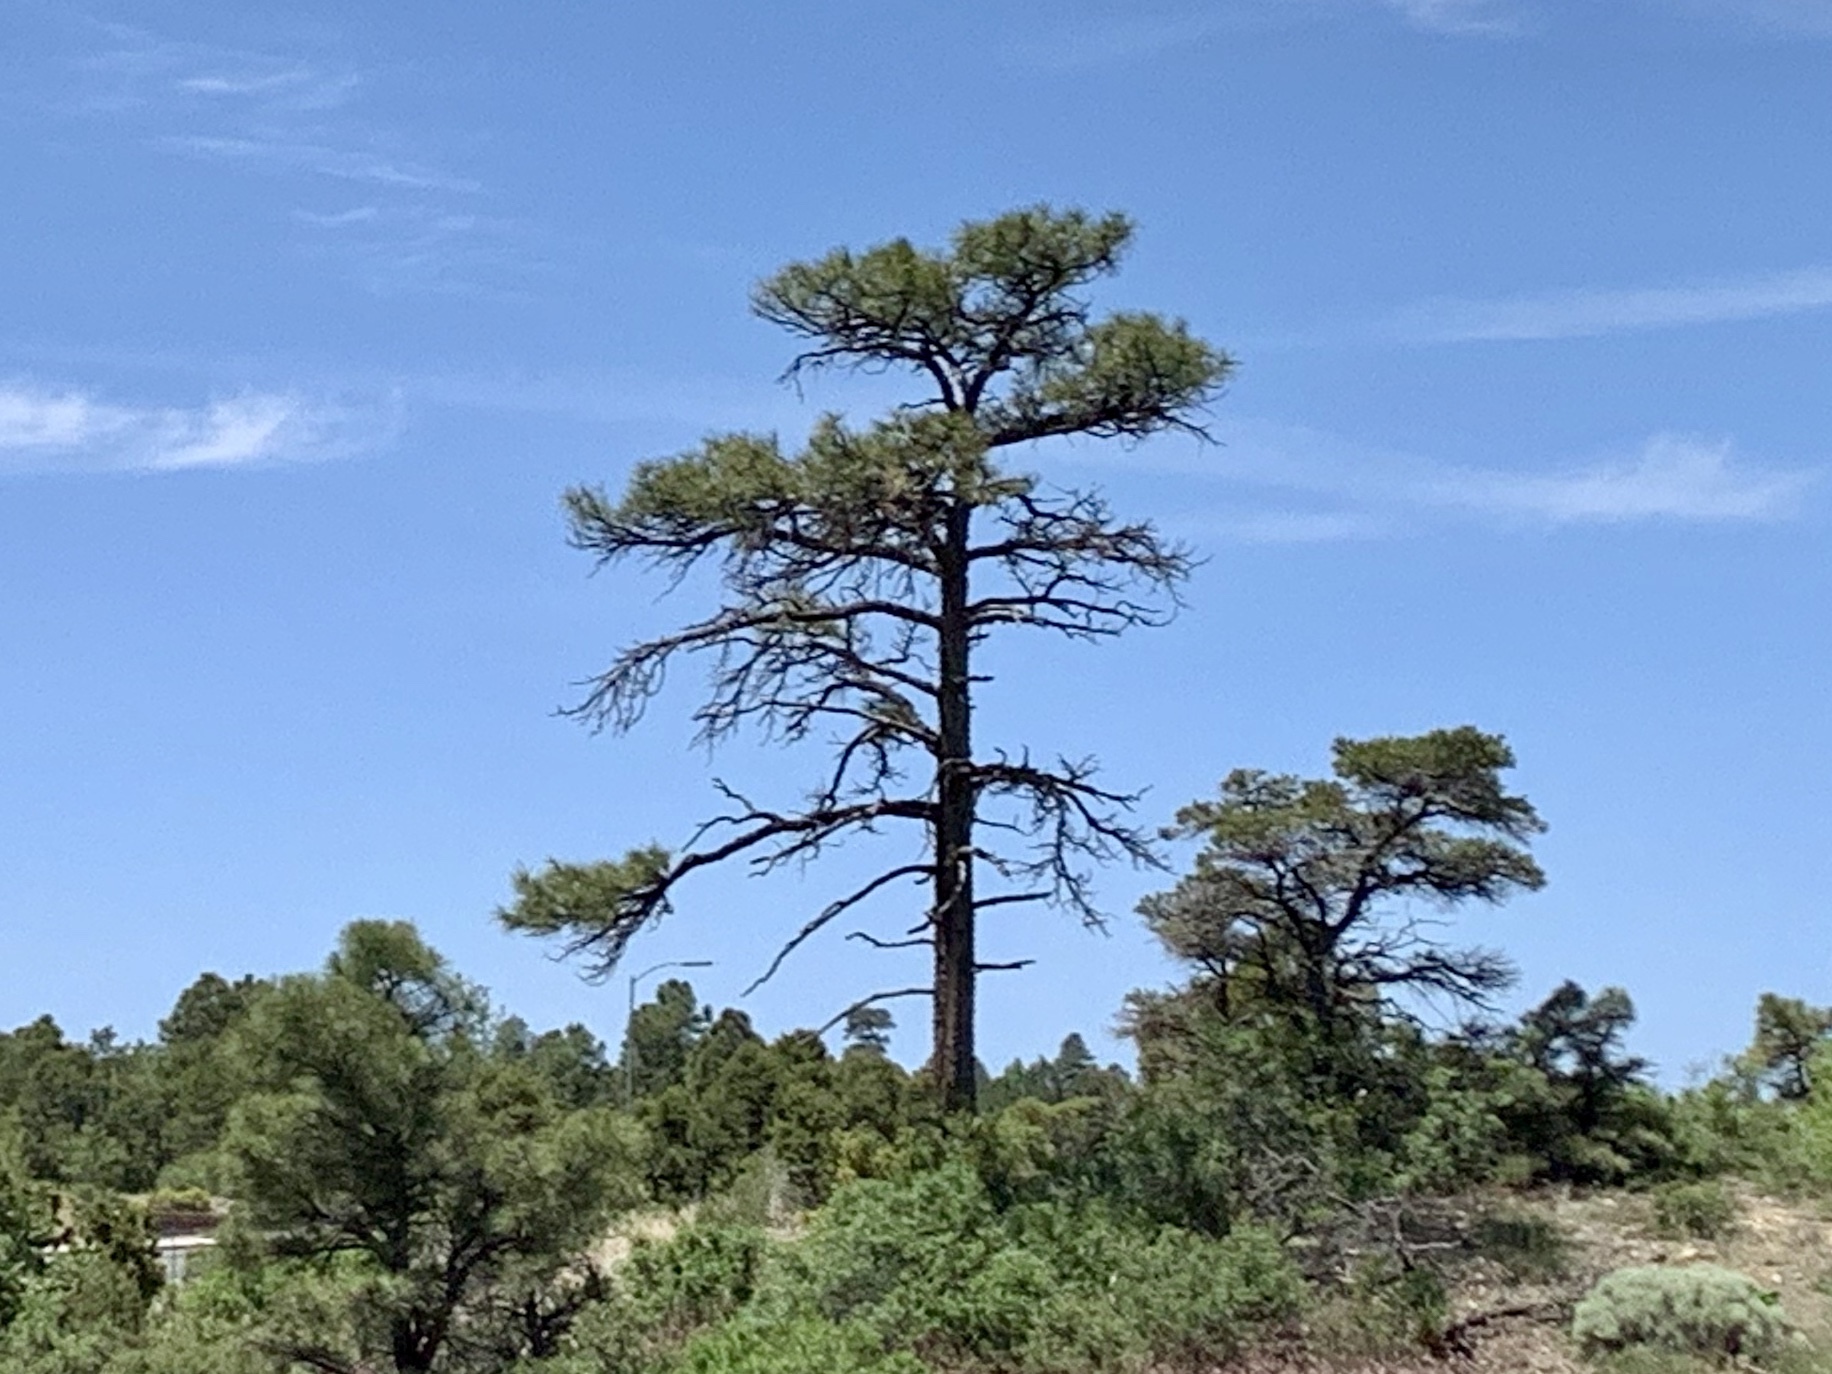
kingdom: Plantae
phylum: Tracheophyta
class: Pinopsida
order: Pinales
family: Pinaceae
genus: Pinus
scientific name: Pinus ponderosa
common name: Western yellow-pine
